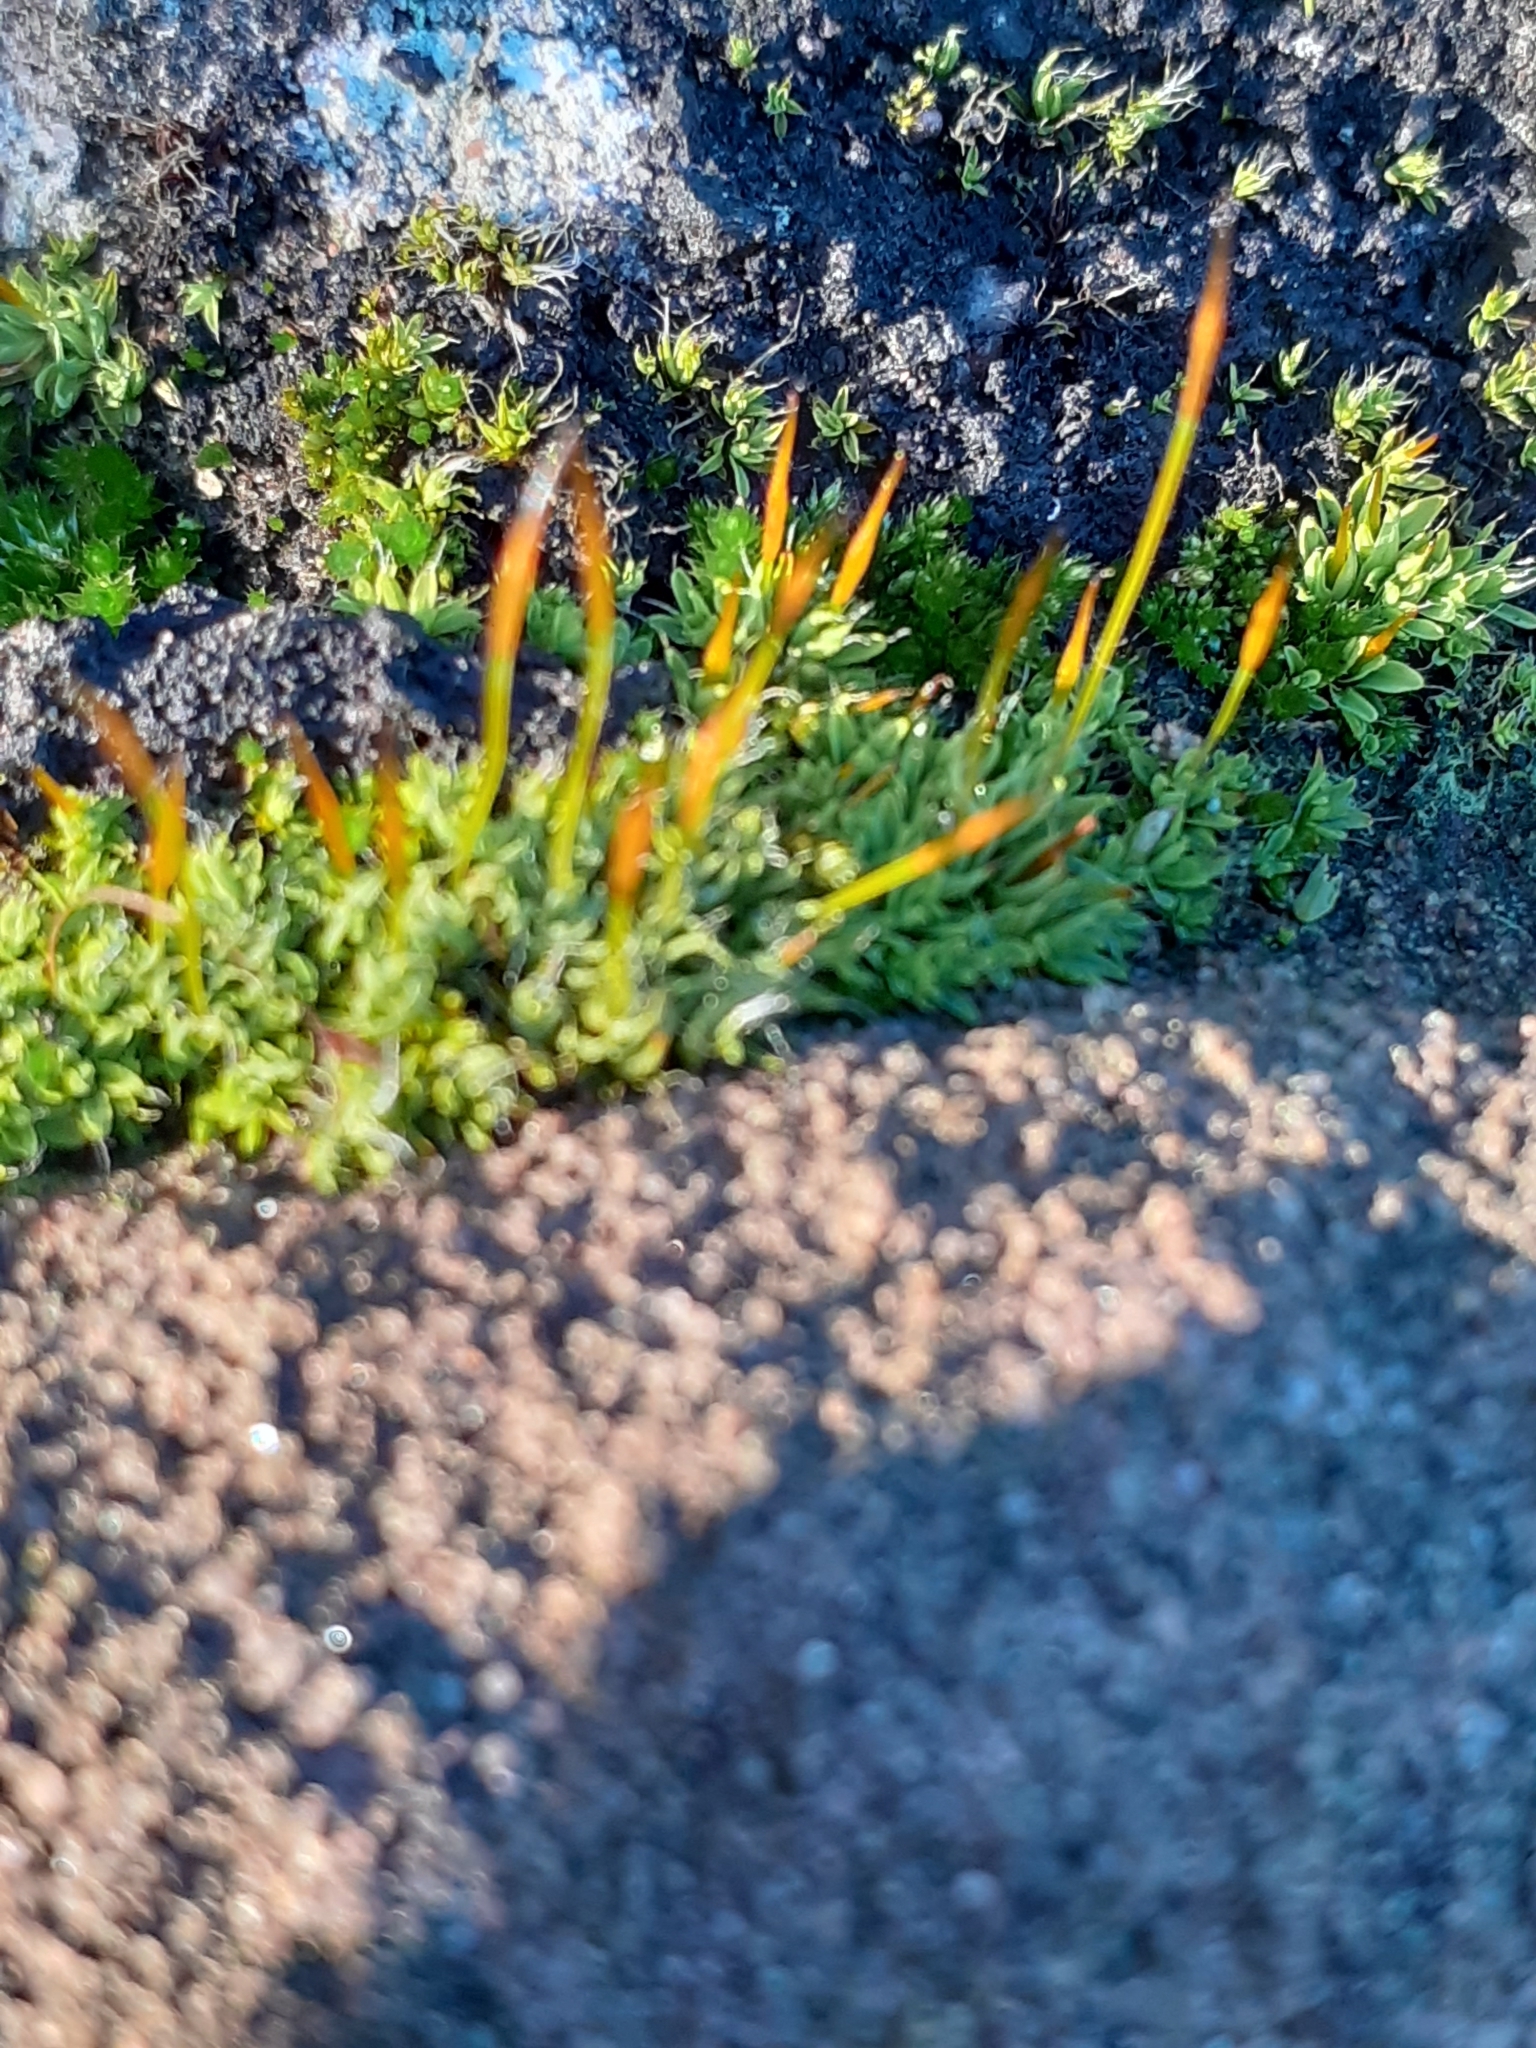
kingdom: Plantae
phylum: Bryophyta
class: Bryopsida
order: Pottiales
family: Pottiaceae
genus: Tortula
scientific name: Tortula muralis
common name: Wall screw-moss
